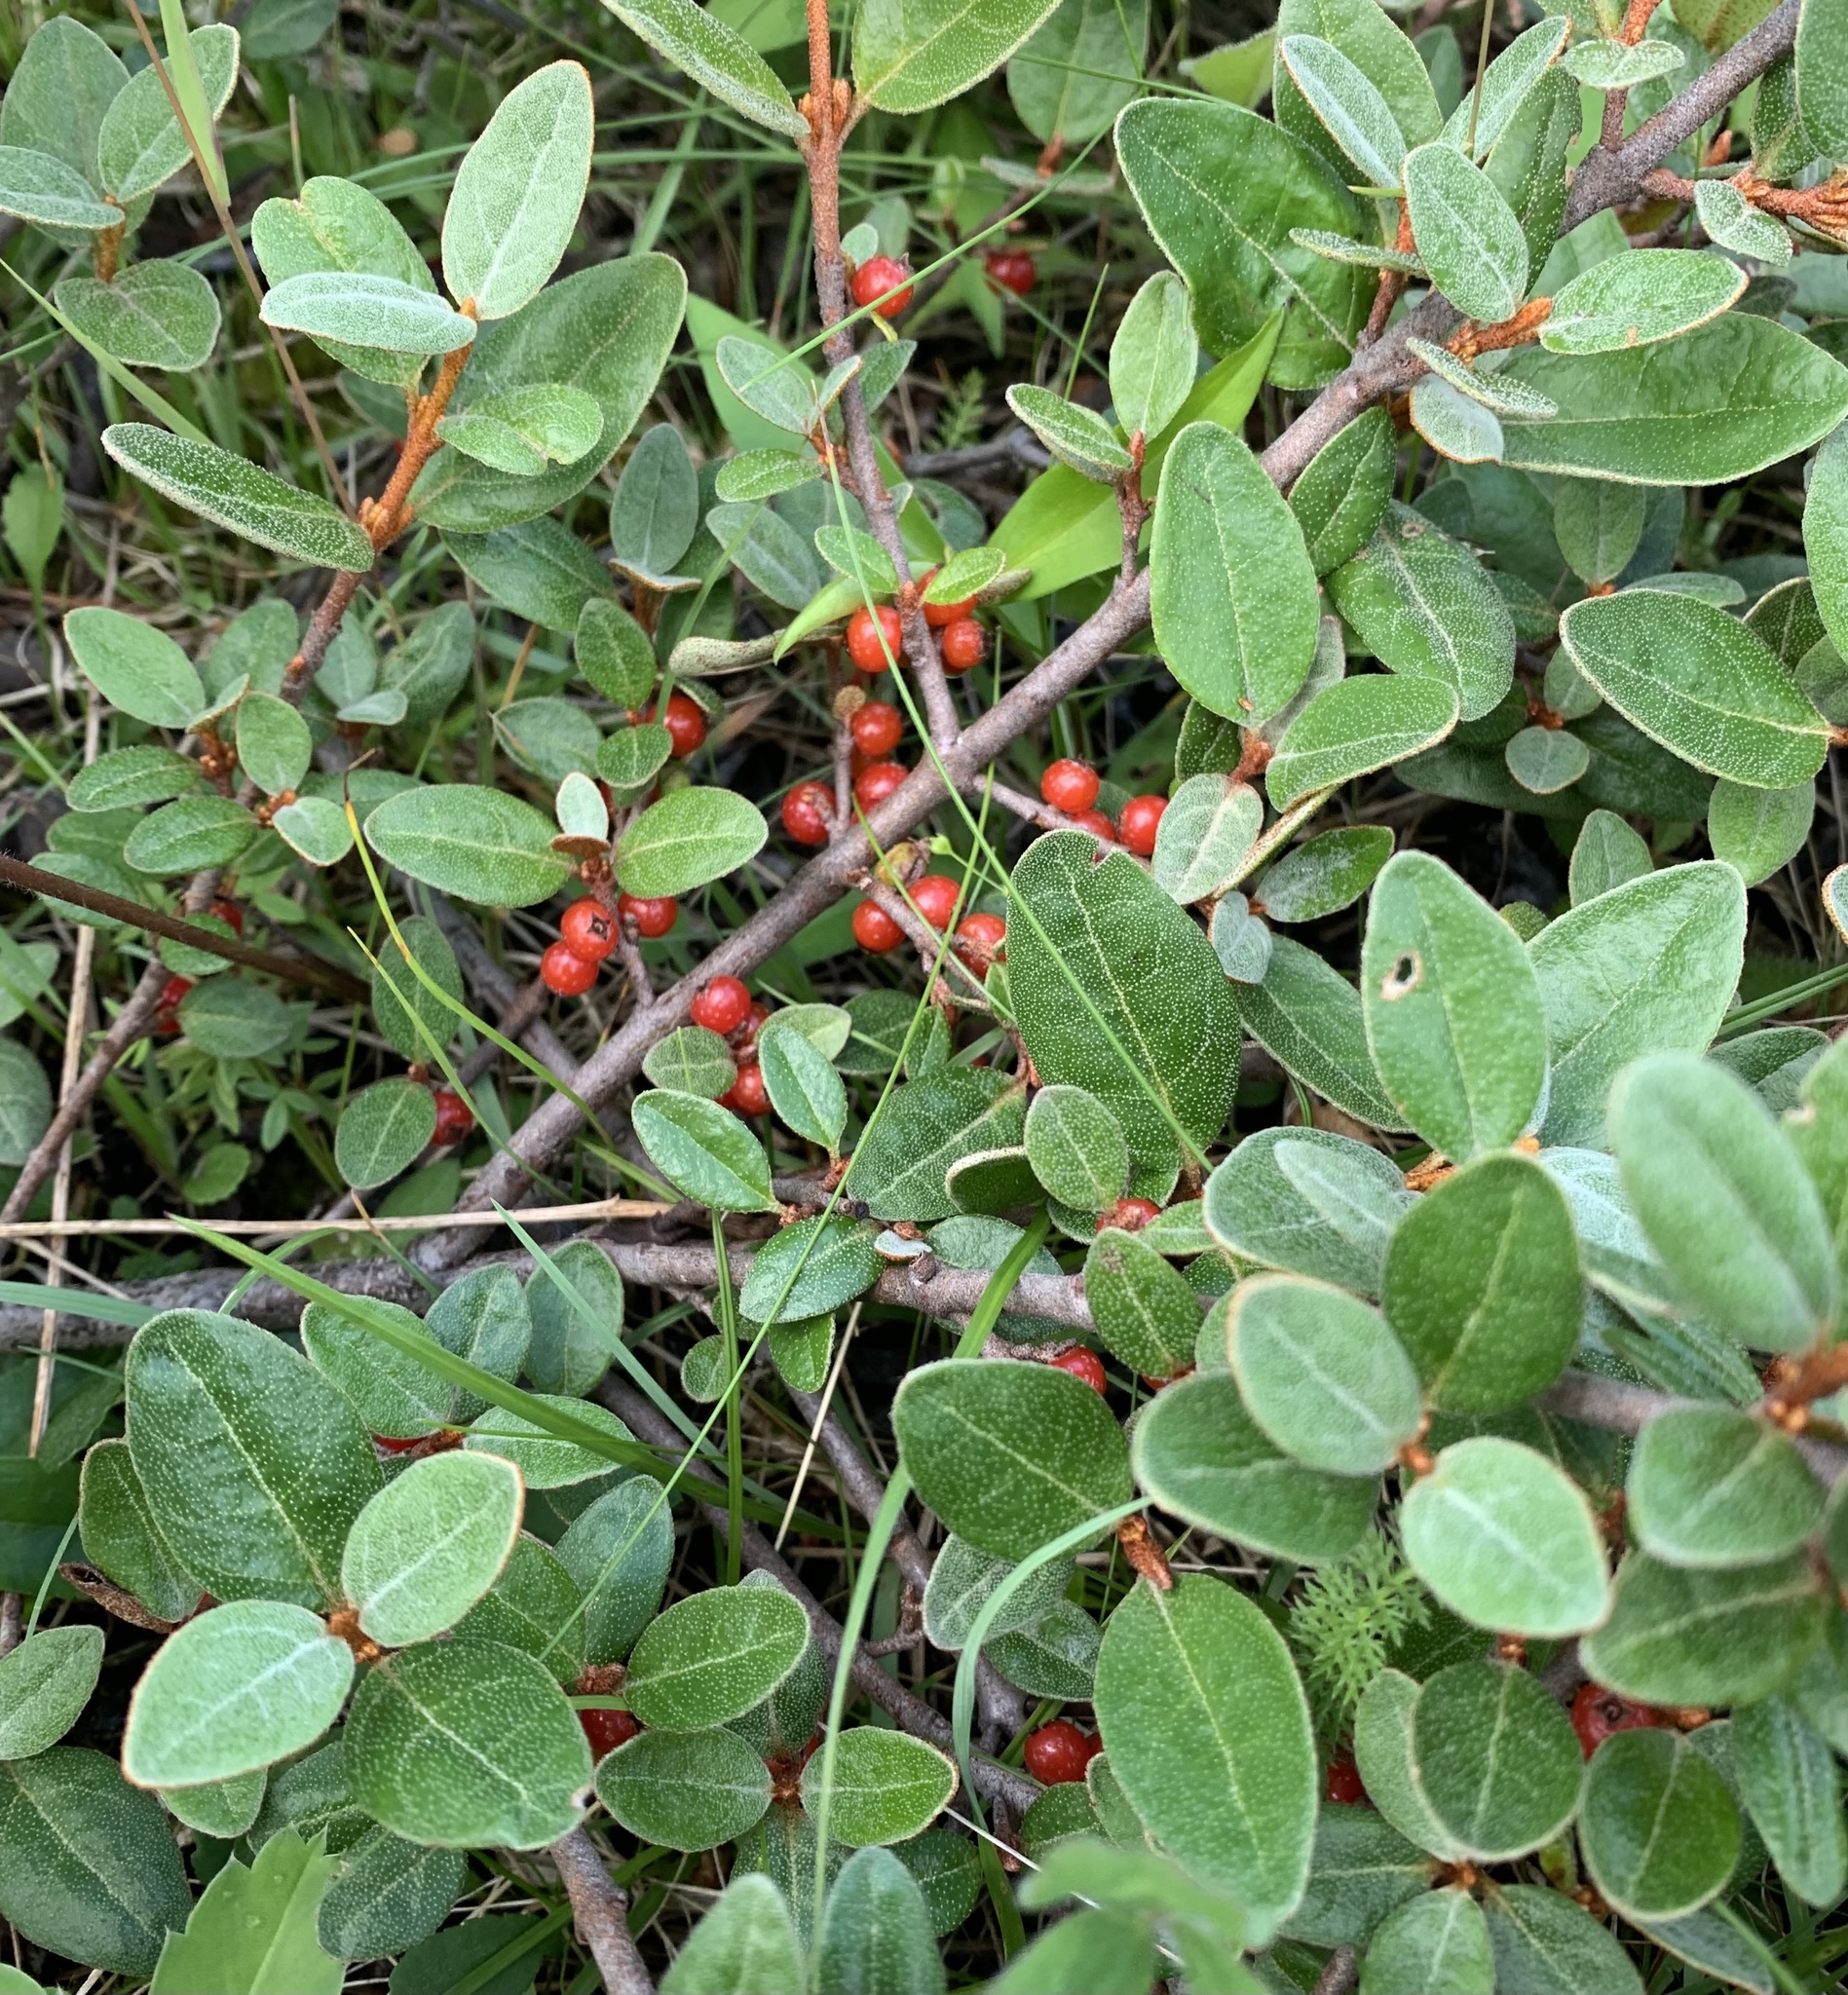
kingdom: Plantae
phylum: Tracheophyta
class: Magnoliopsida
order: Rosales
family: Elaeagnaceae
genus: Shepherdia
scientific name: Shepherdia canadensis
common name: Soapberry
